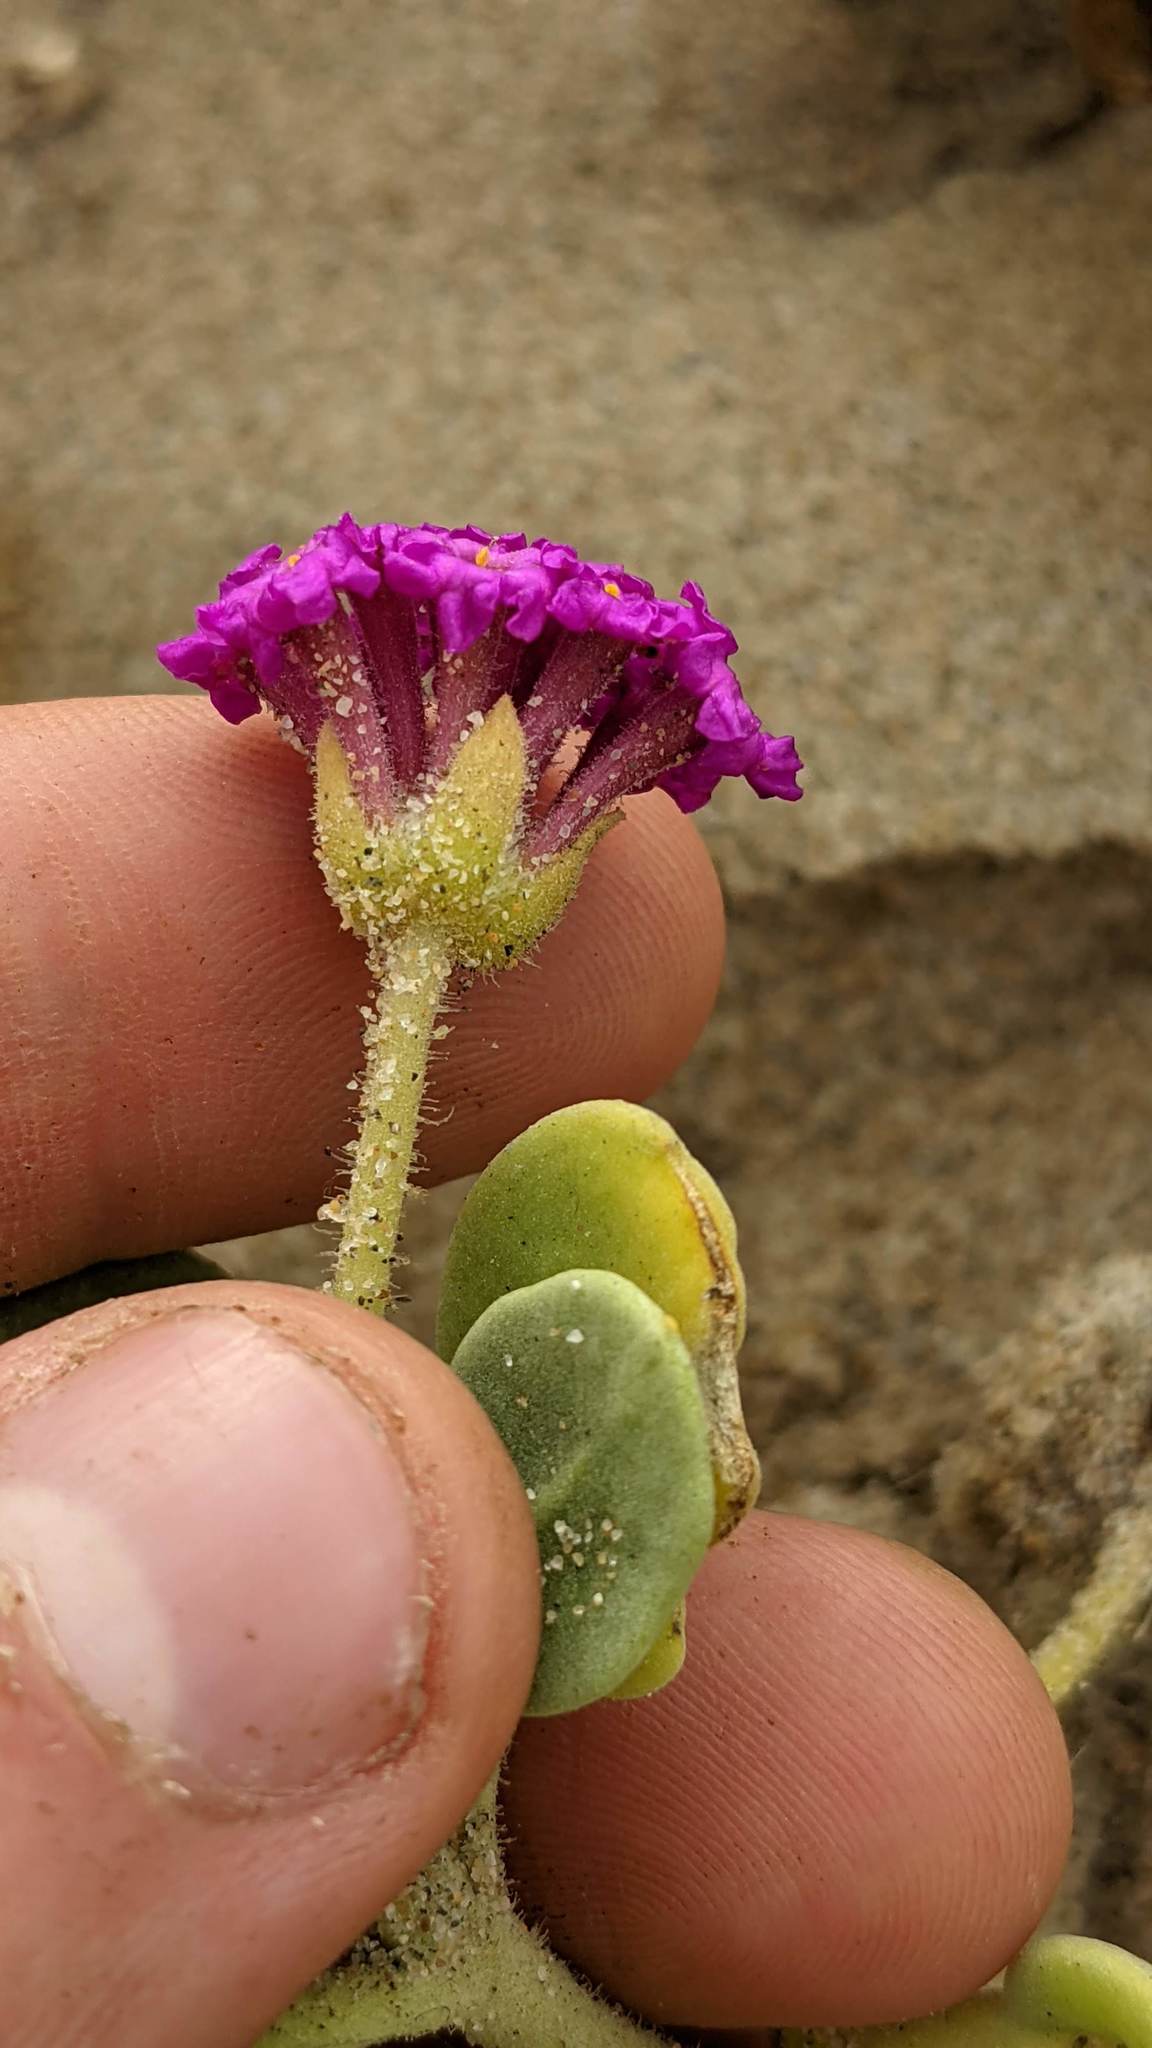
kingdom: Plantae
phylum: Tracheophyta
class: Magnoliopsida
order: Caryophyllales
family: Nyctaginaceae
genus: Abronia
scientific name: Abronia maritima
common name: Red sand-verbena
